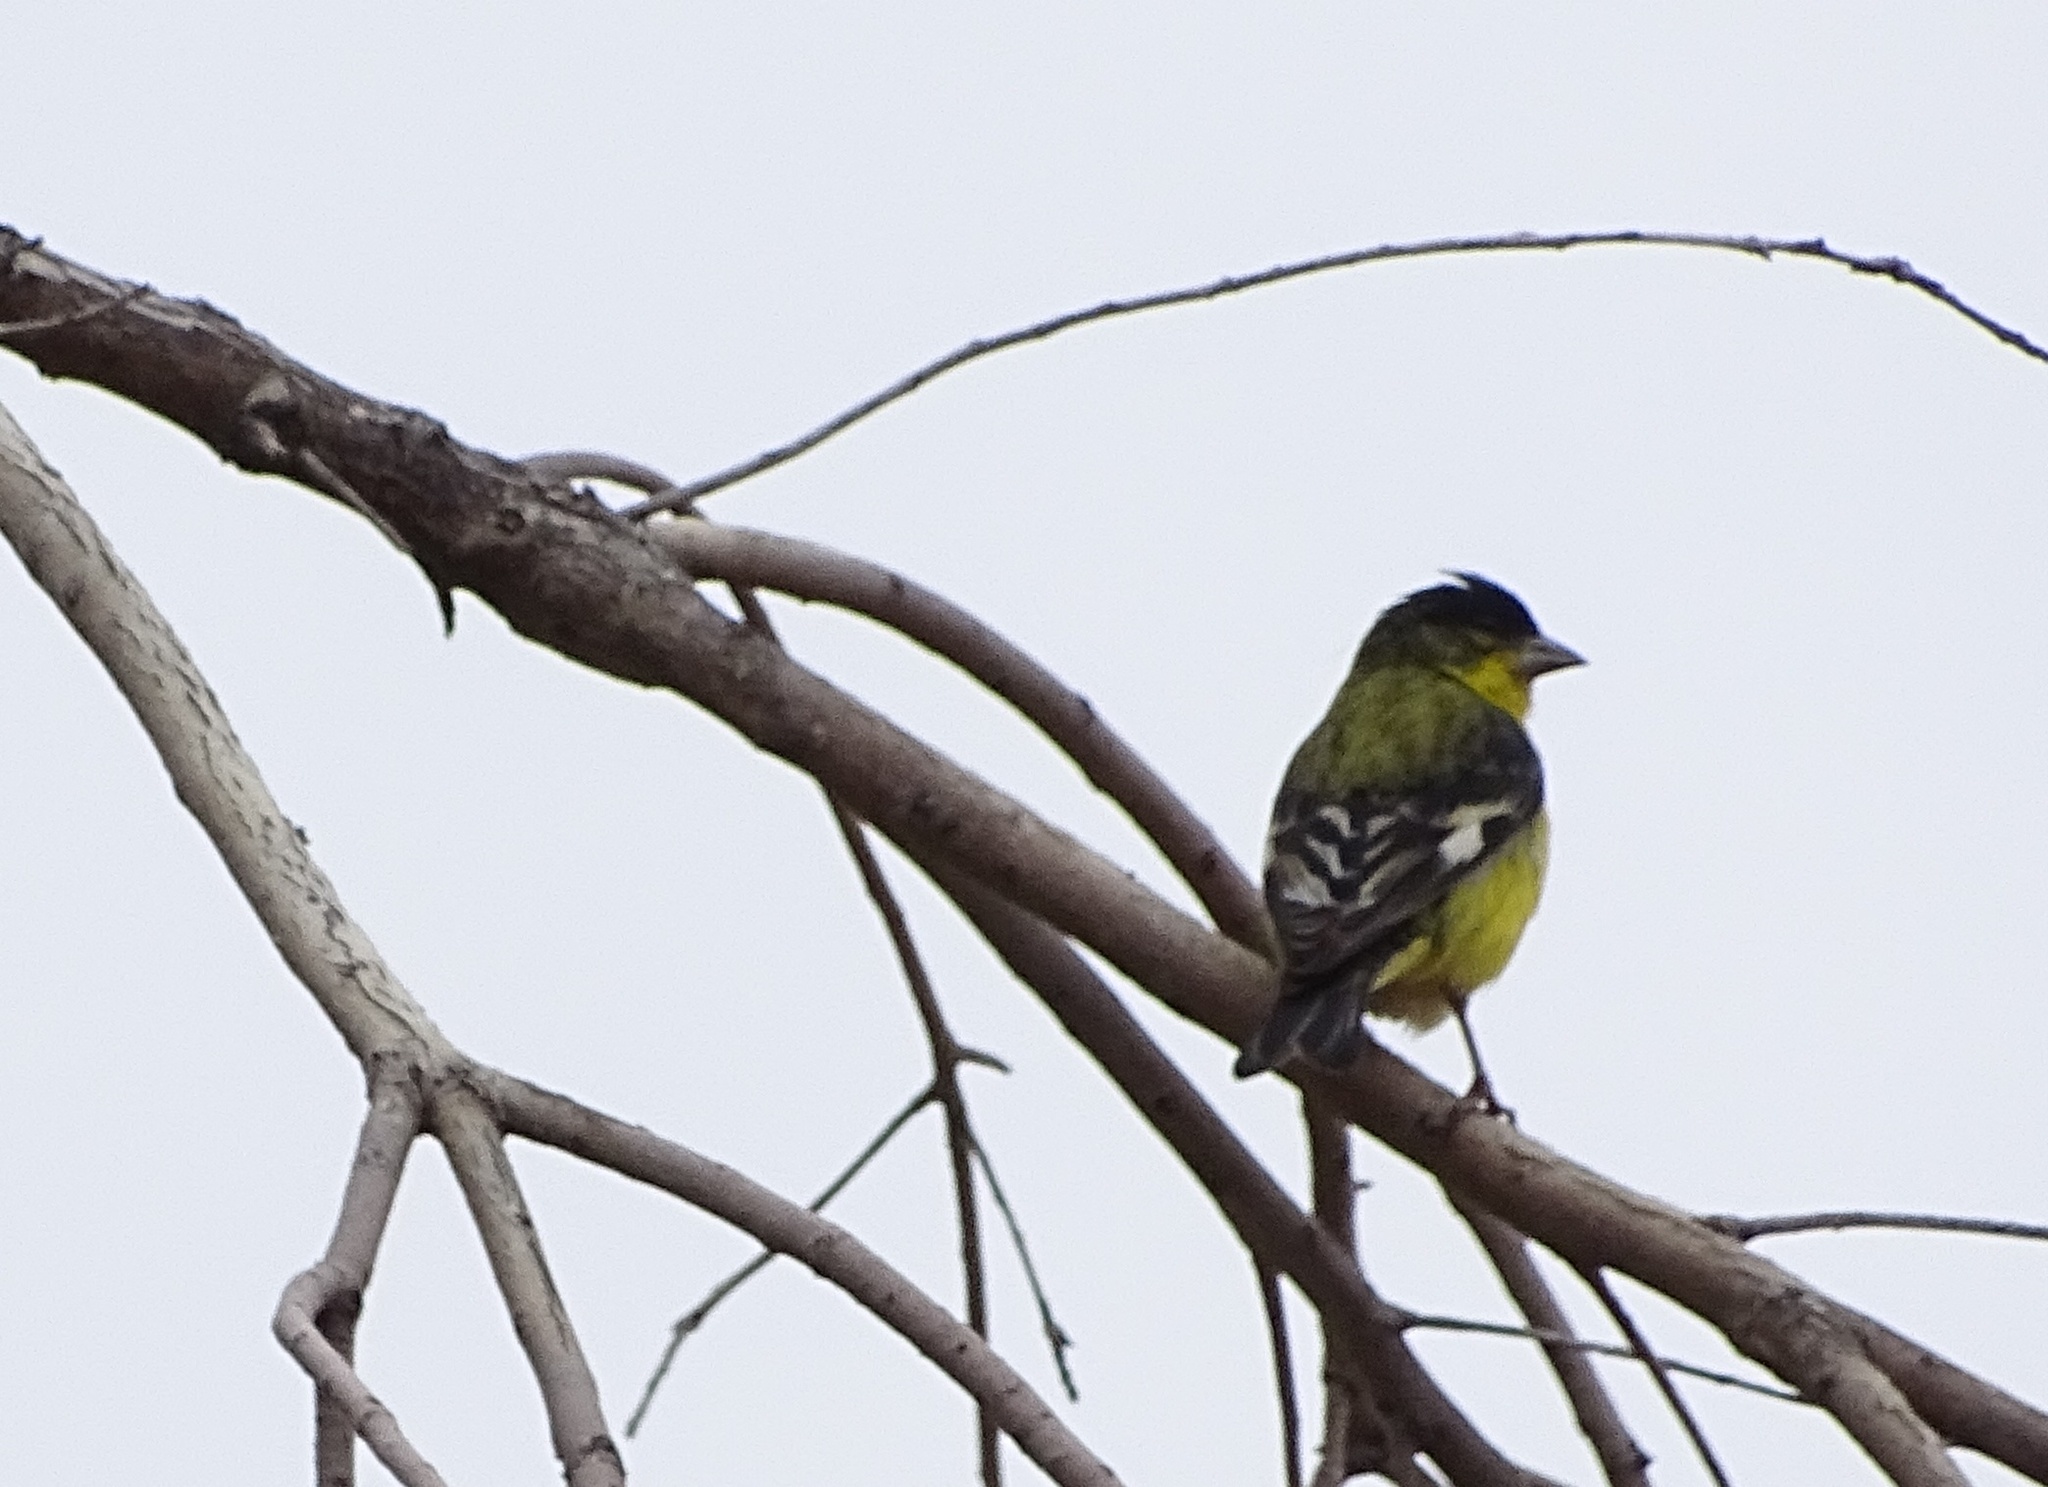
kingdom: Animalia
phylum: Chordata
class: Aves
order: Passeriformes
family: Fringillidae
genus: Spinus
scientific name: Spinus psaltria
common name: Lesser goldfinch
